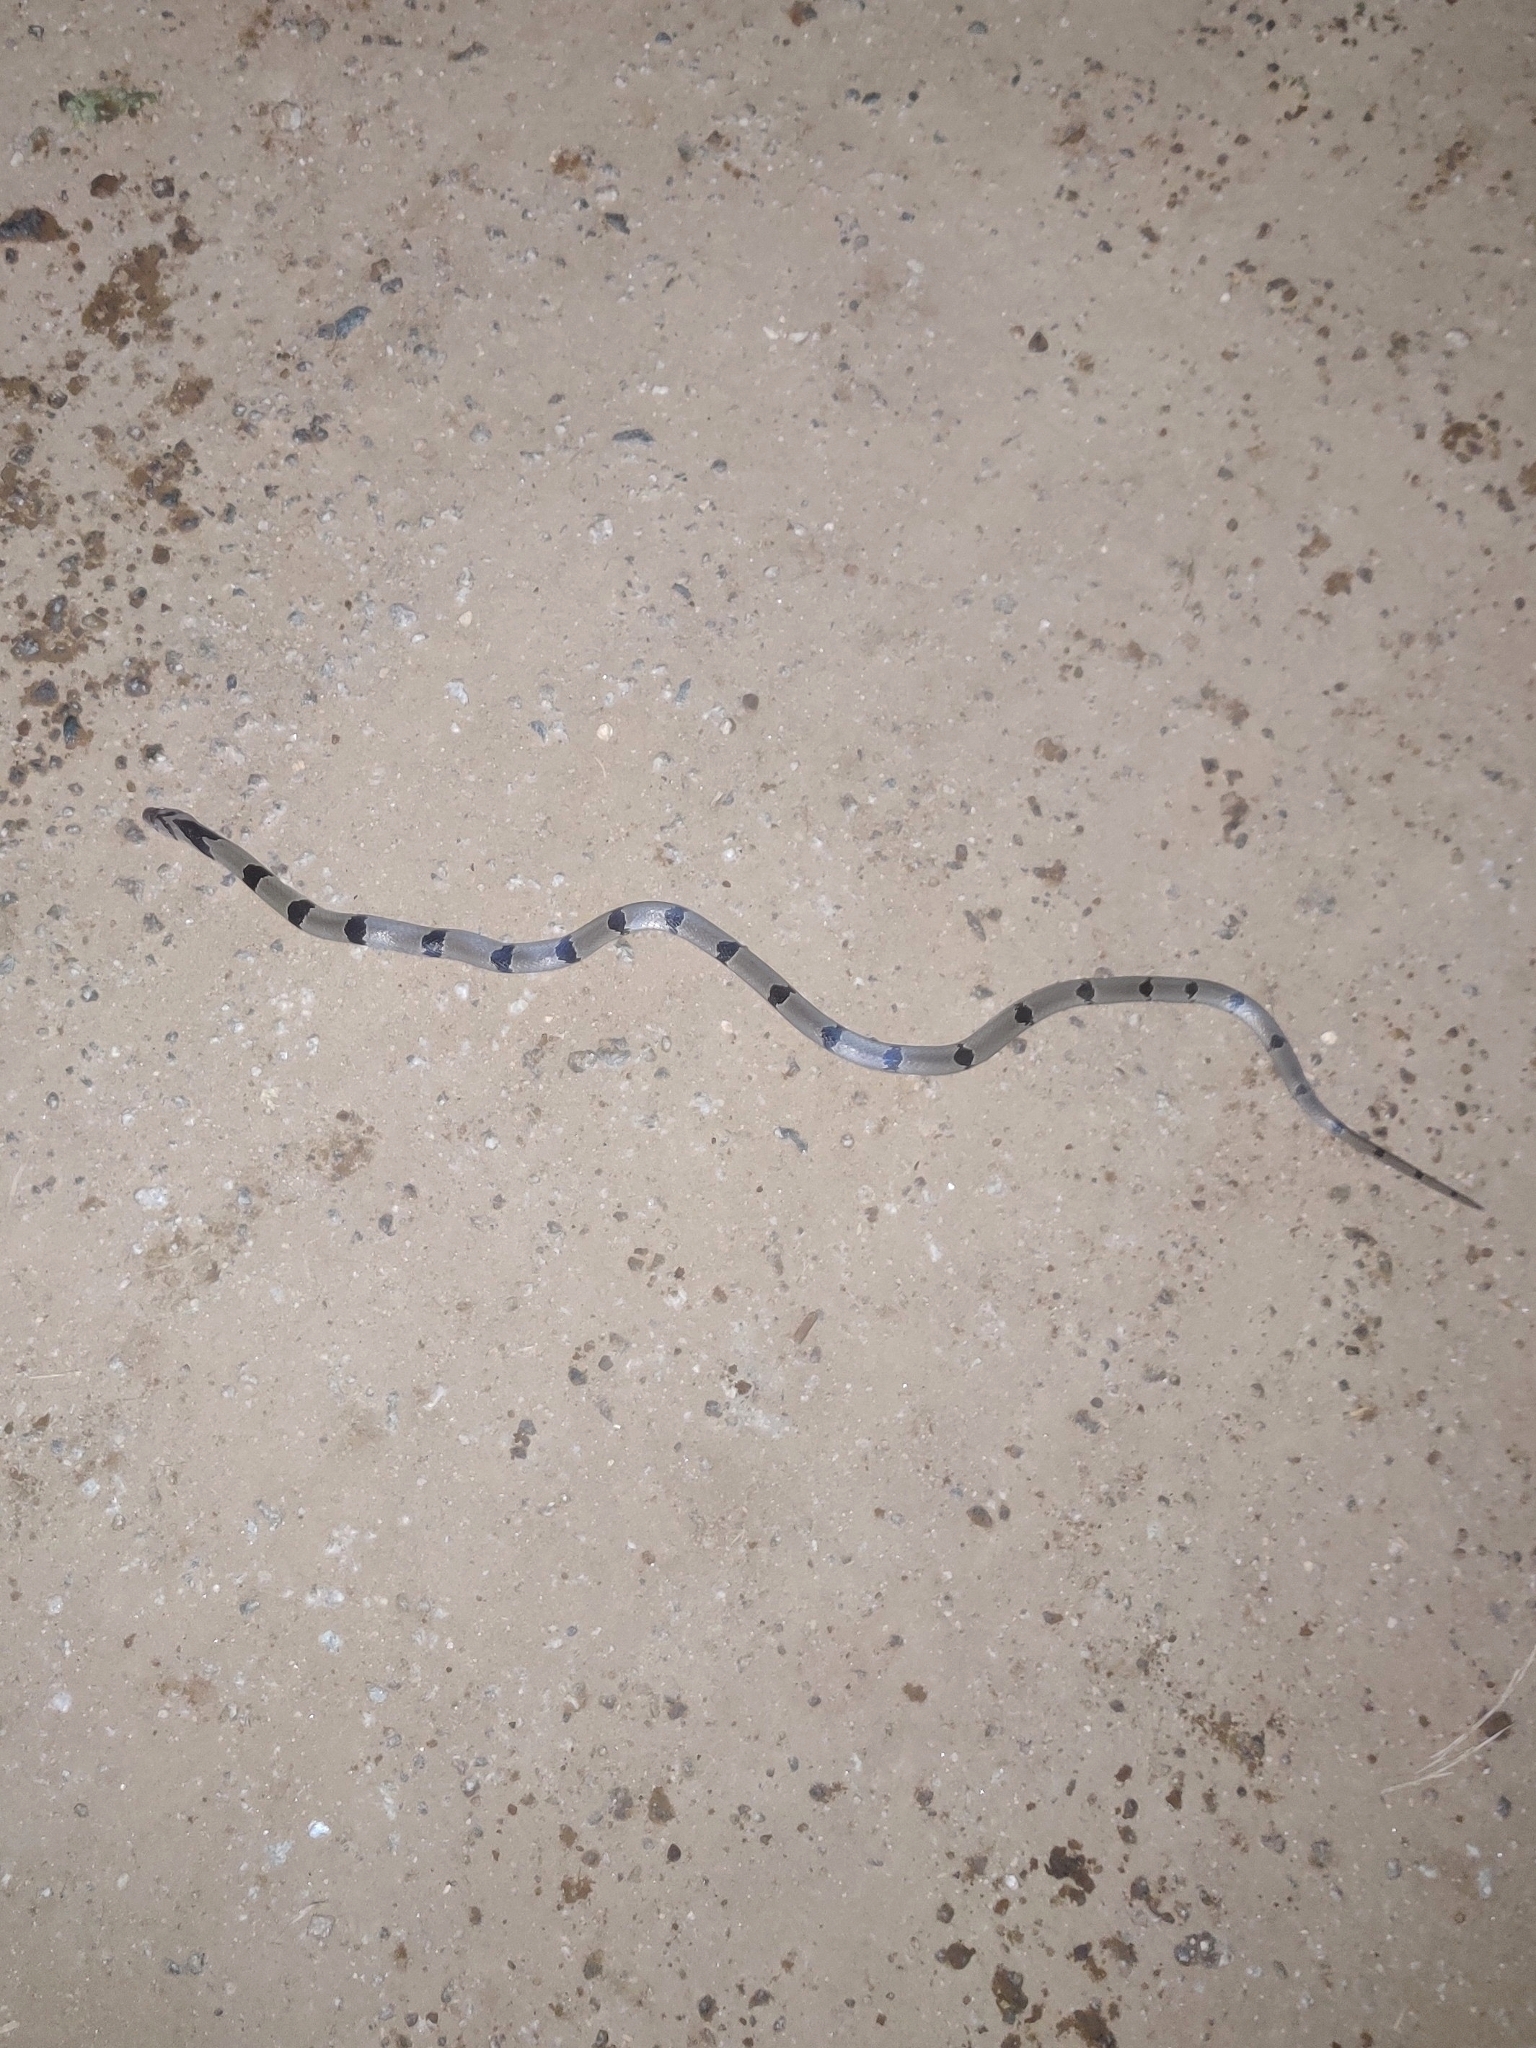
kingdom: Animalia
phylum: Chordata
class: Squamata
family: Colubridae
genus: Oligodon
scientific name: Oligodon arnensis
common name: Banded kukri
